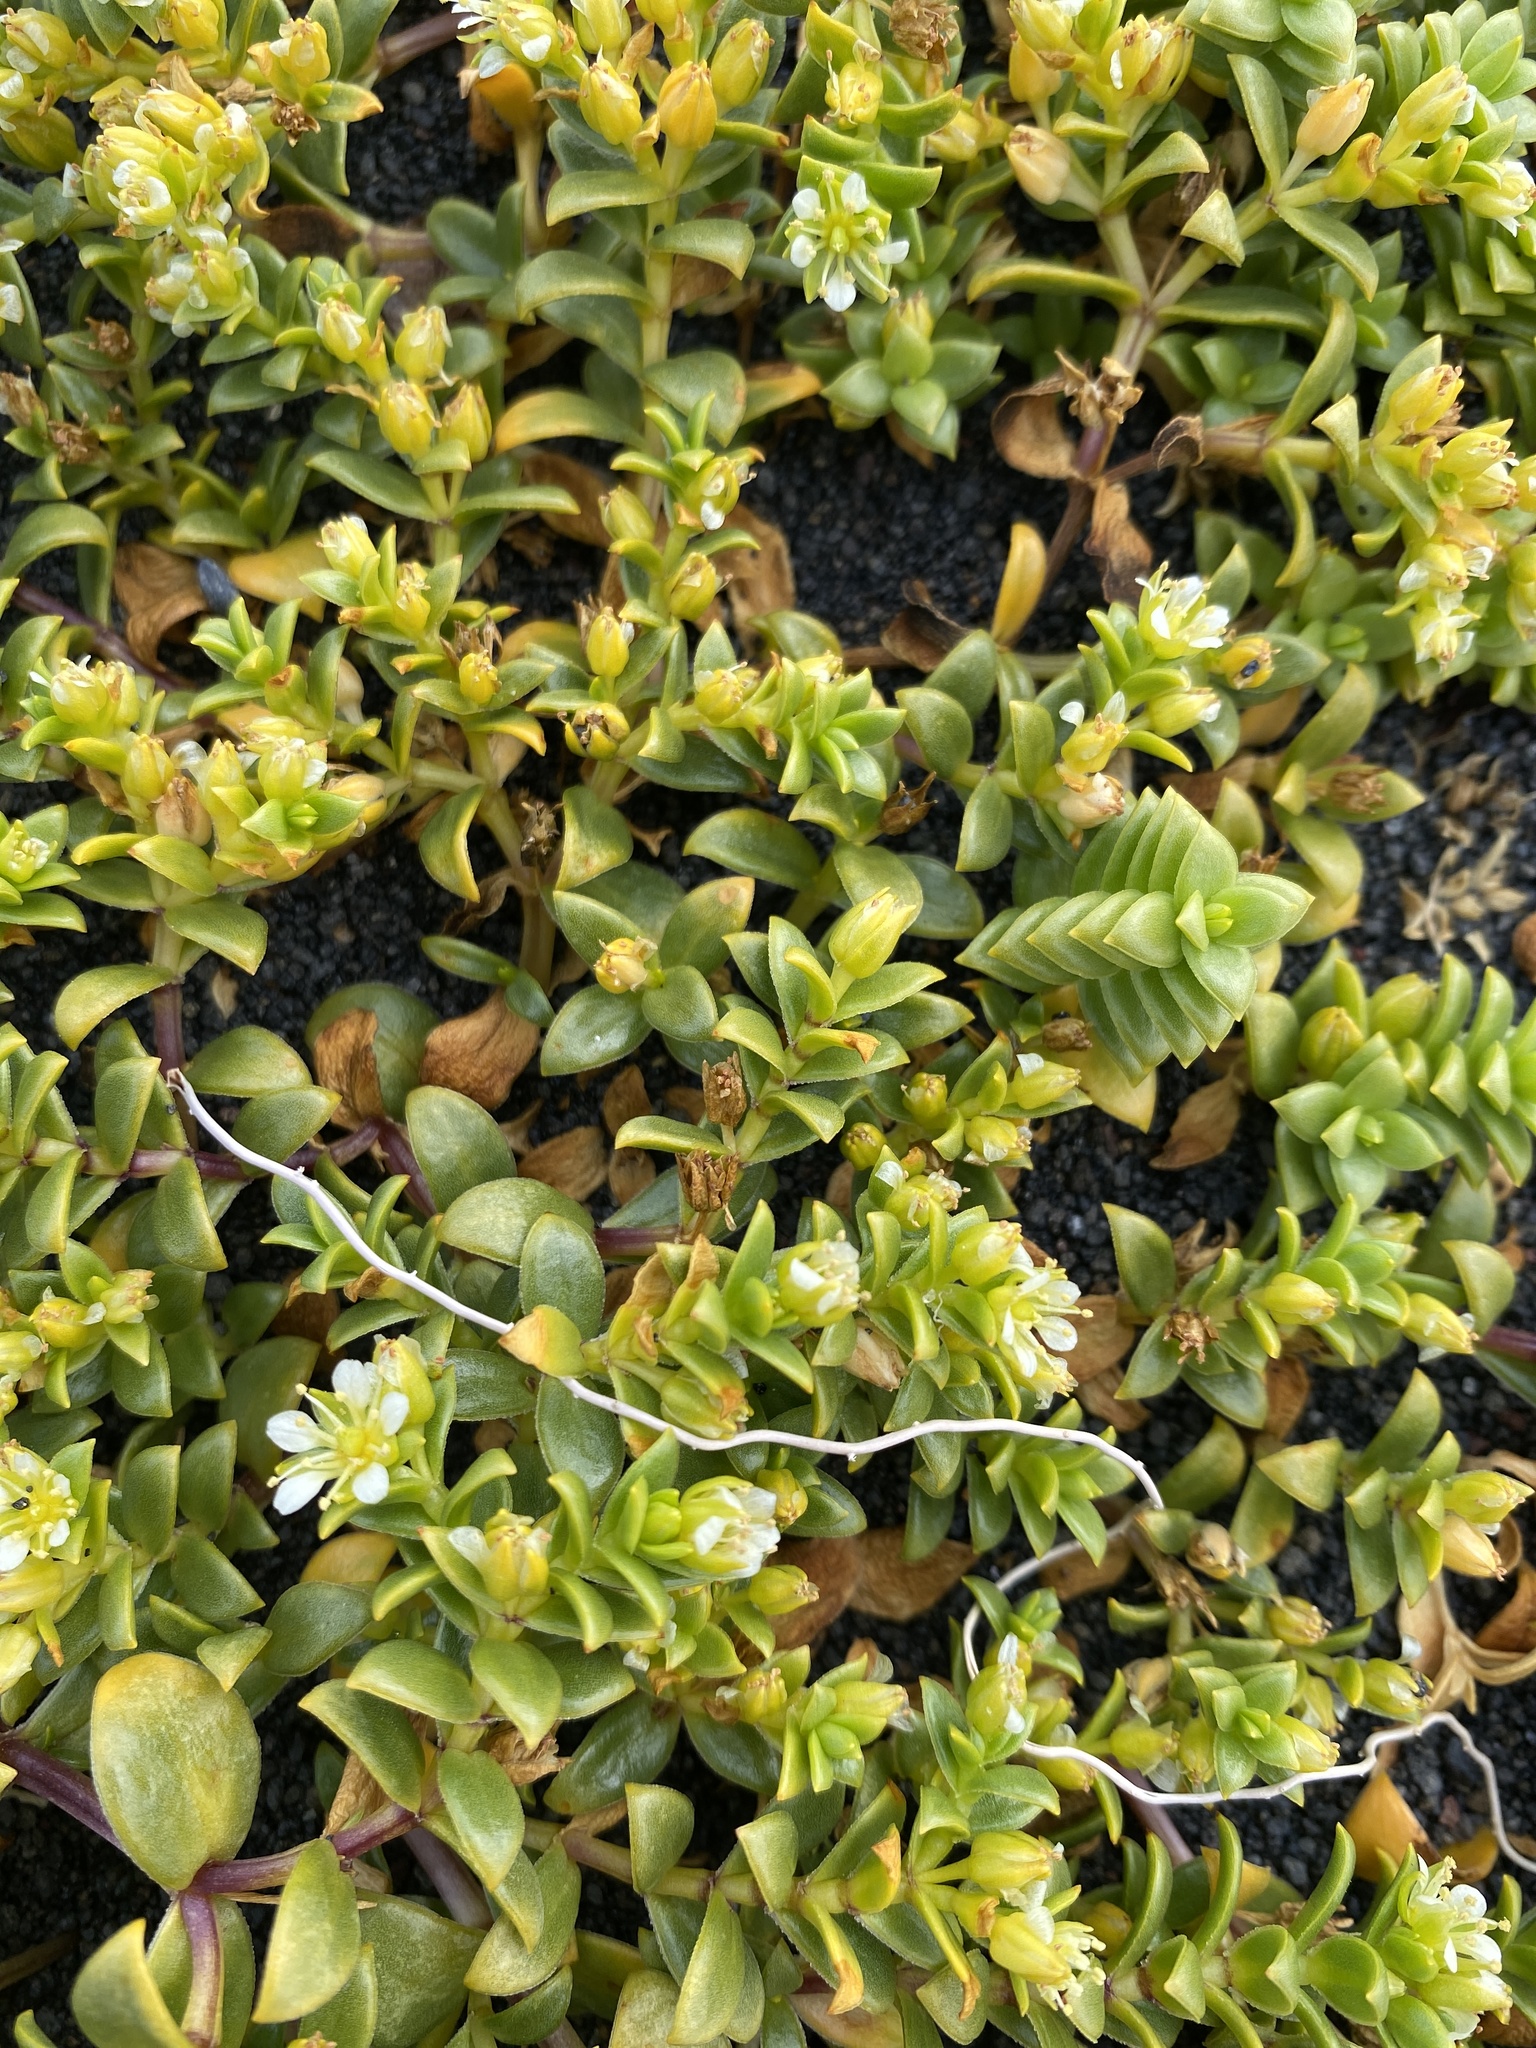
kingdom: Plantae
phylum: Tracheophyta
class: Magnoliopsida
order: Caryophyllales
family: Caryophyllaceae
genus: Honckenya
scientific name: Honckenya peploides
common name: Sea sandwort
